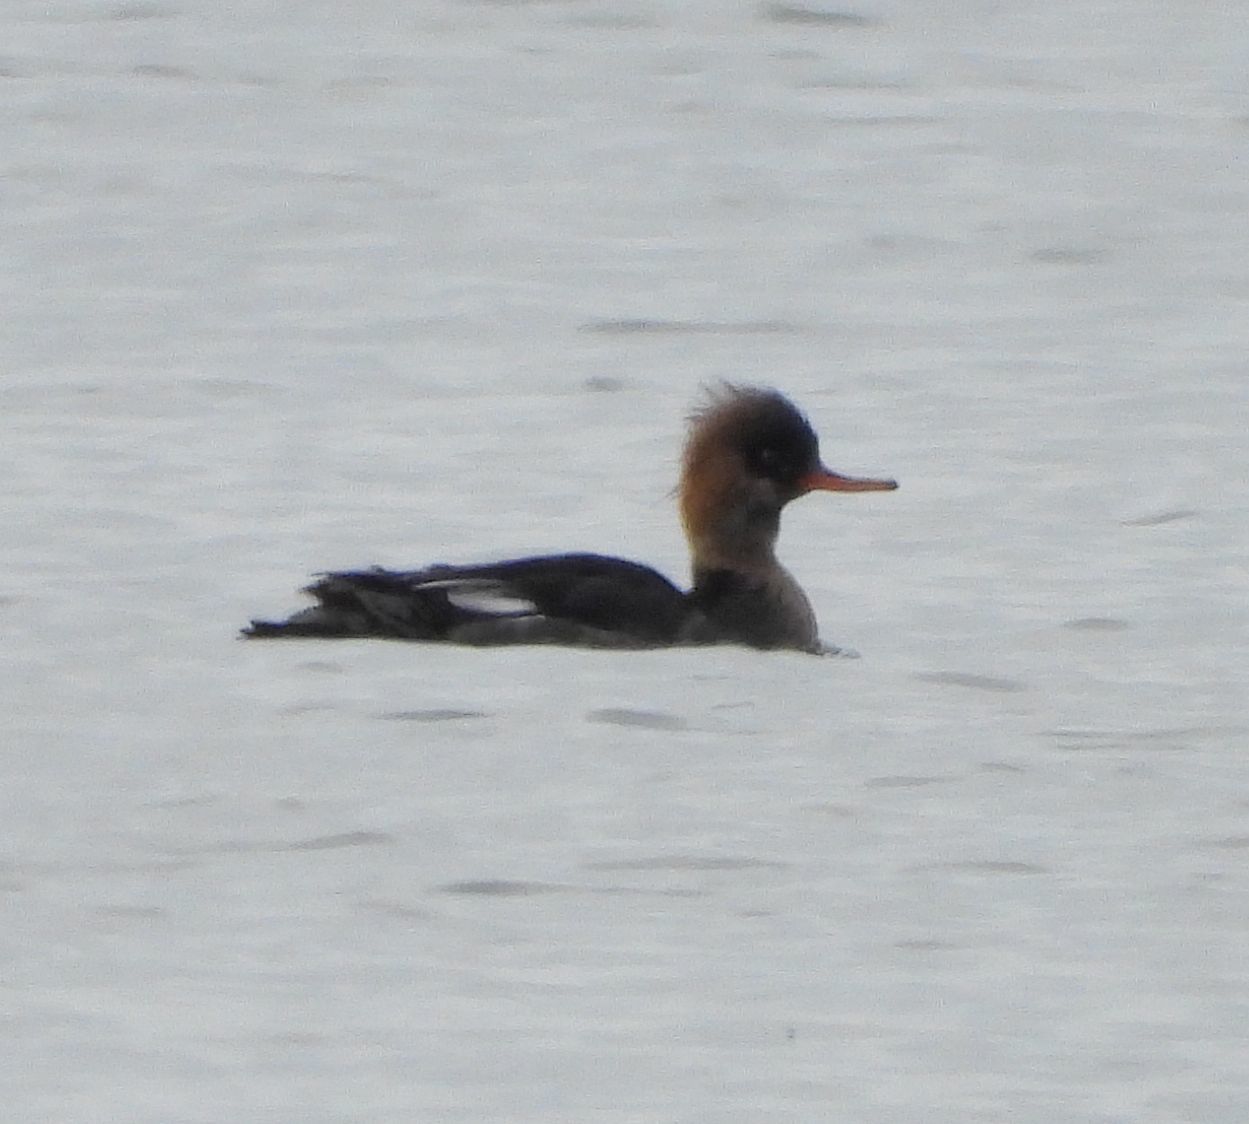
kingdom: Animalia
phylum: Chordata
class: Aves
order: Anseriformes
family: Anatidae
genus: Mergus
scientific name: Mergus serrator
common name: Red-breasted merganser
